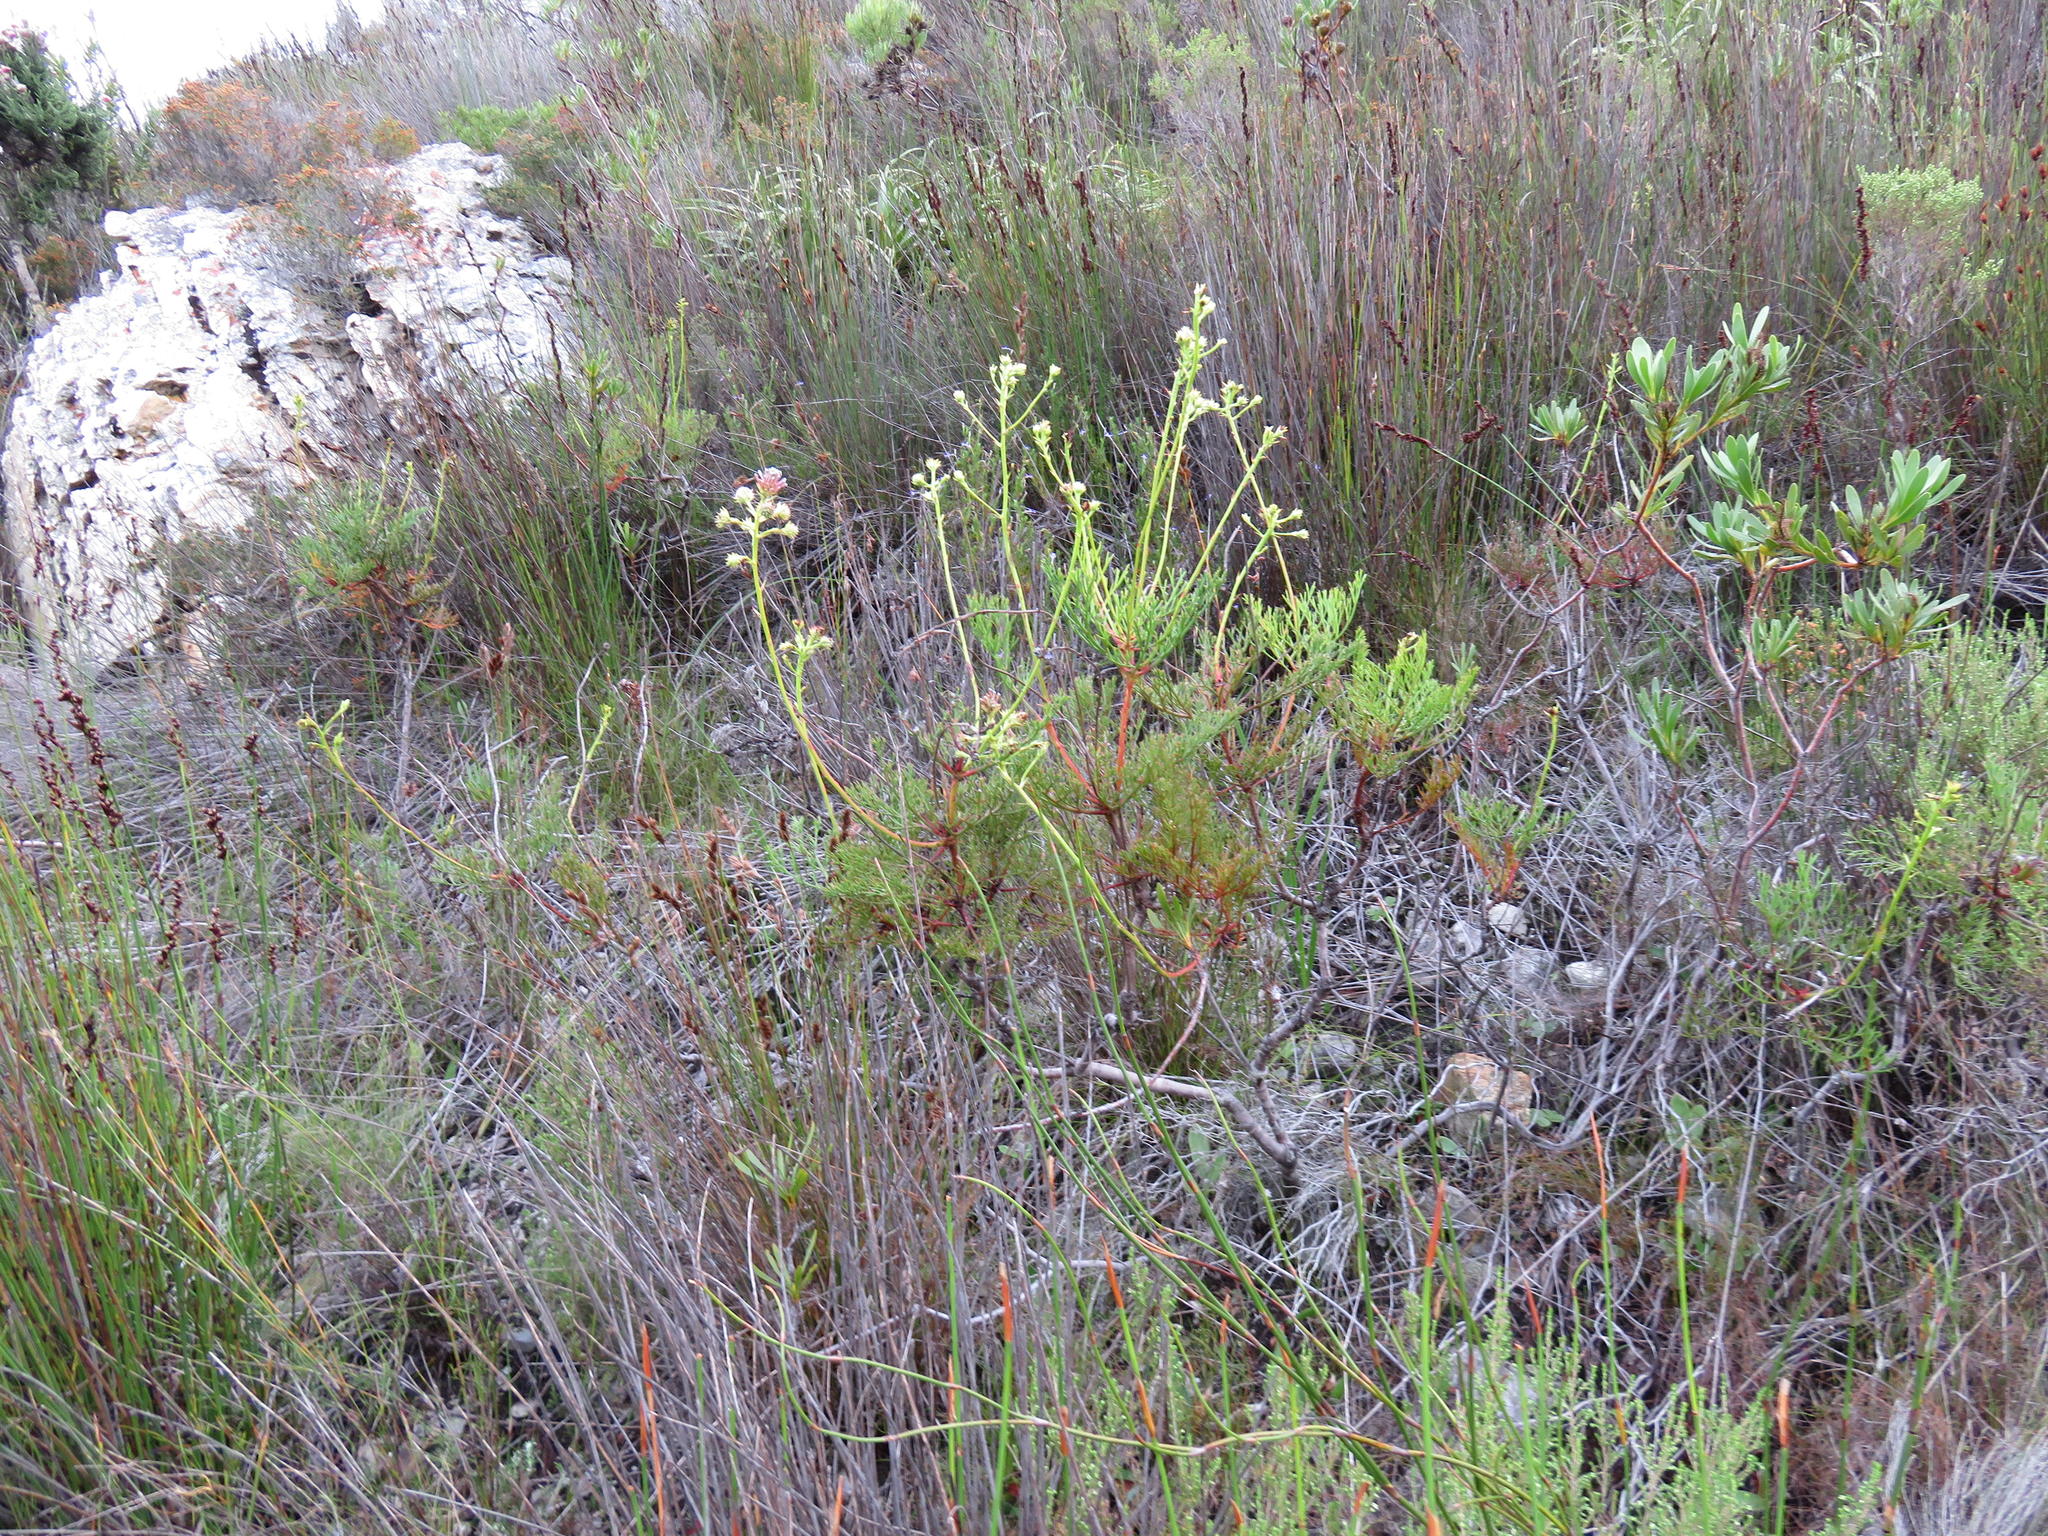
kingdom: Plantae
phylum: Tracheophyta
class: Magnoliopsida
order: Proteales
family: Proteaceae
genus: Serruria
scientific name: Serruria elongata
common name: Long-stalk spiderhead
